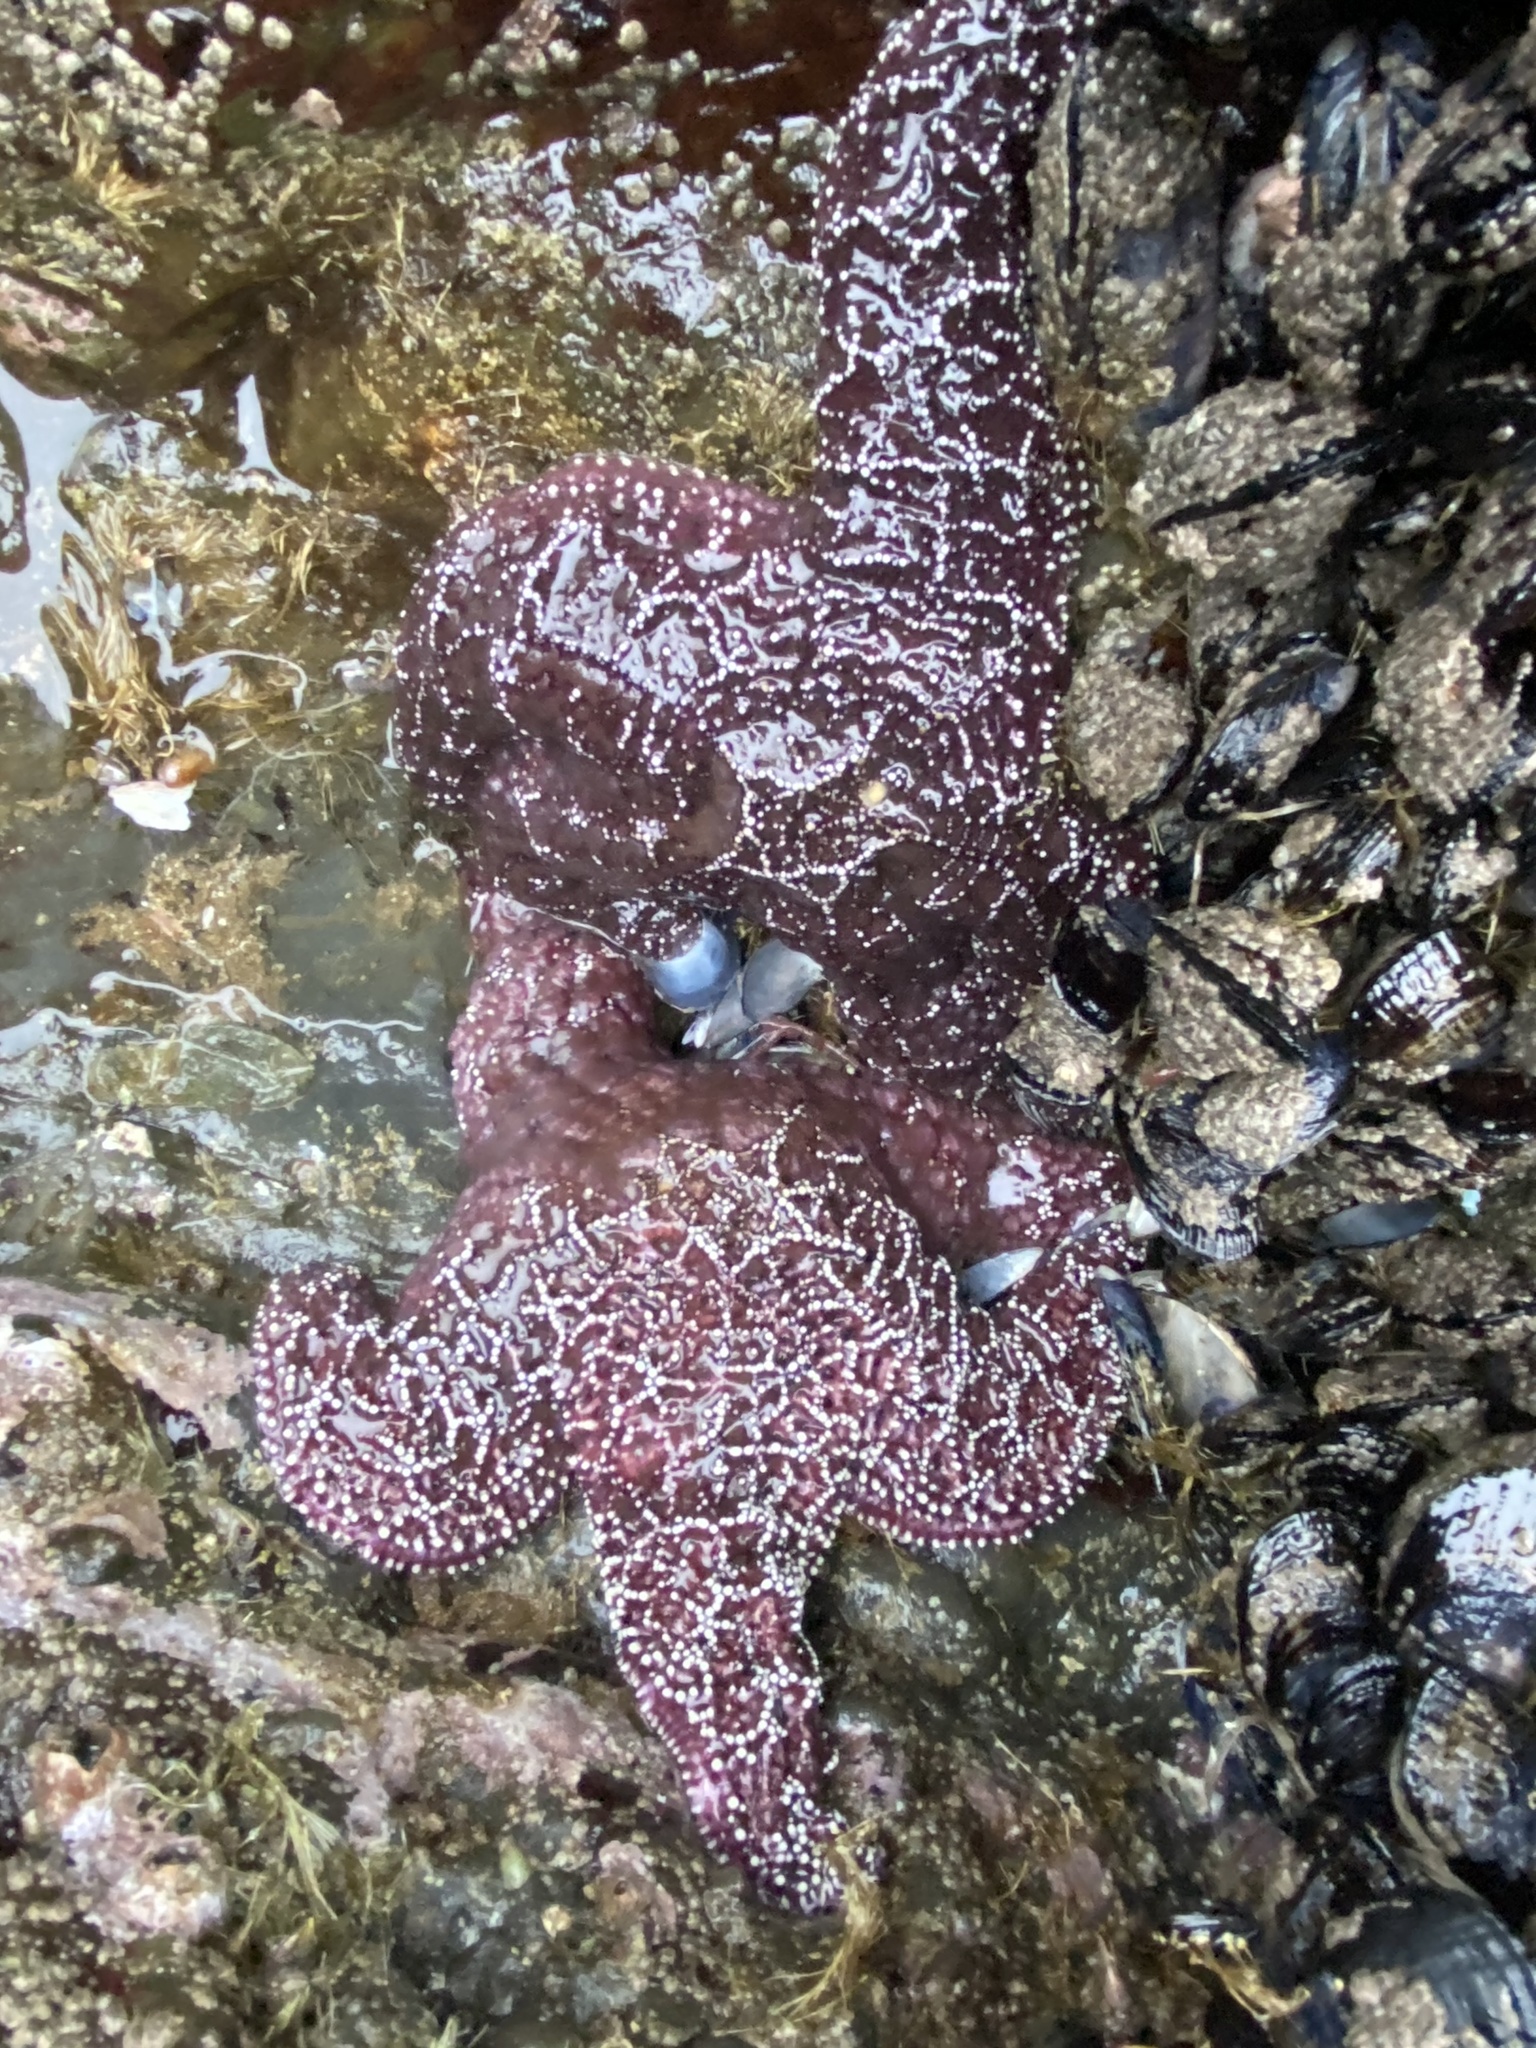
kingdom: Animalia
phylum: Echinodermata
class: Asteroidea
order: Forcipulatida
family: Asteriidae
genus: Pisaster
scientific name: Pisaster ochraceus
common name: Ochre stars
